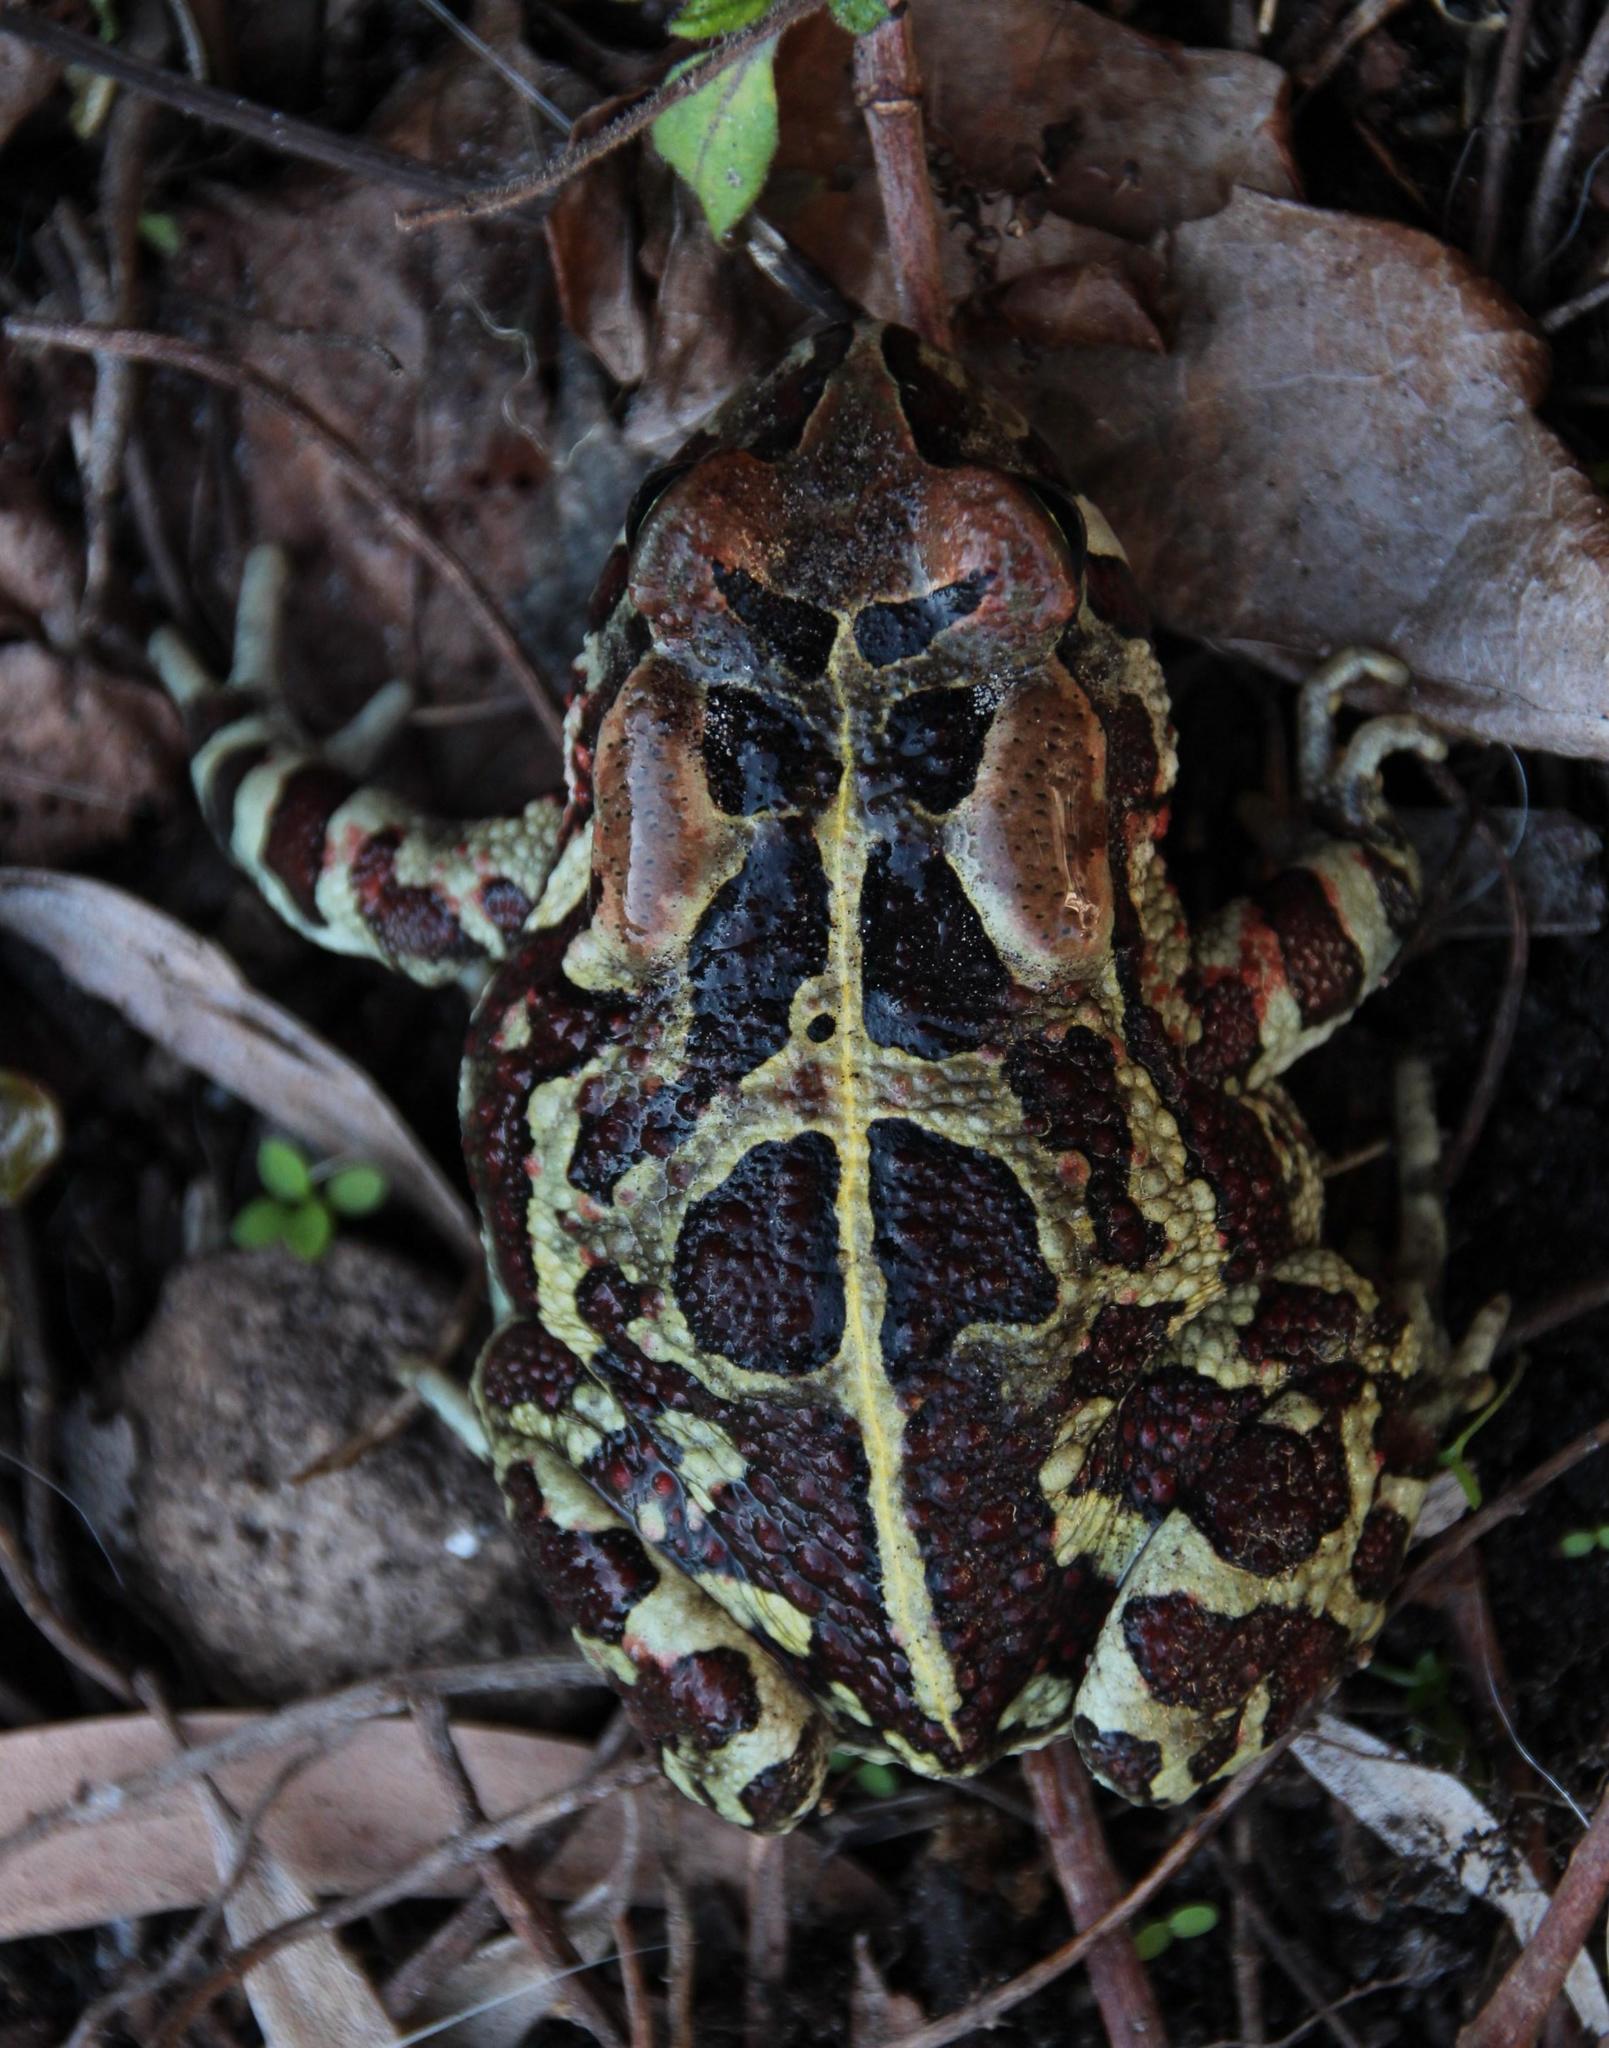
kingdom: Animalia
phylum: Chordata
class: Amphibia
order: Anura
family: Bufonidae
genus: Sclerophrys
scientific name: Sclerophrys pantherina
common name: Panther toad
